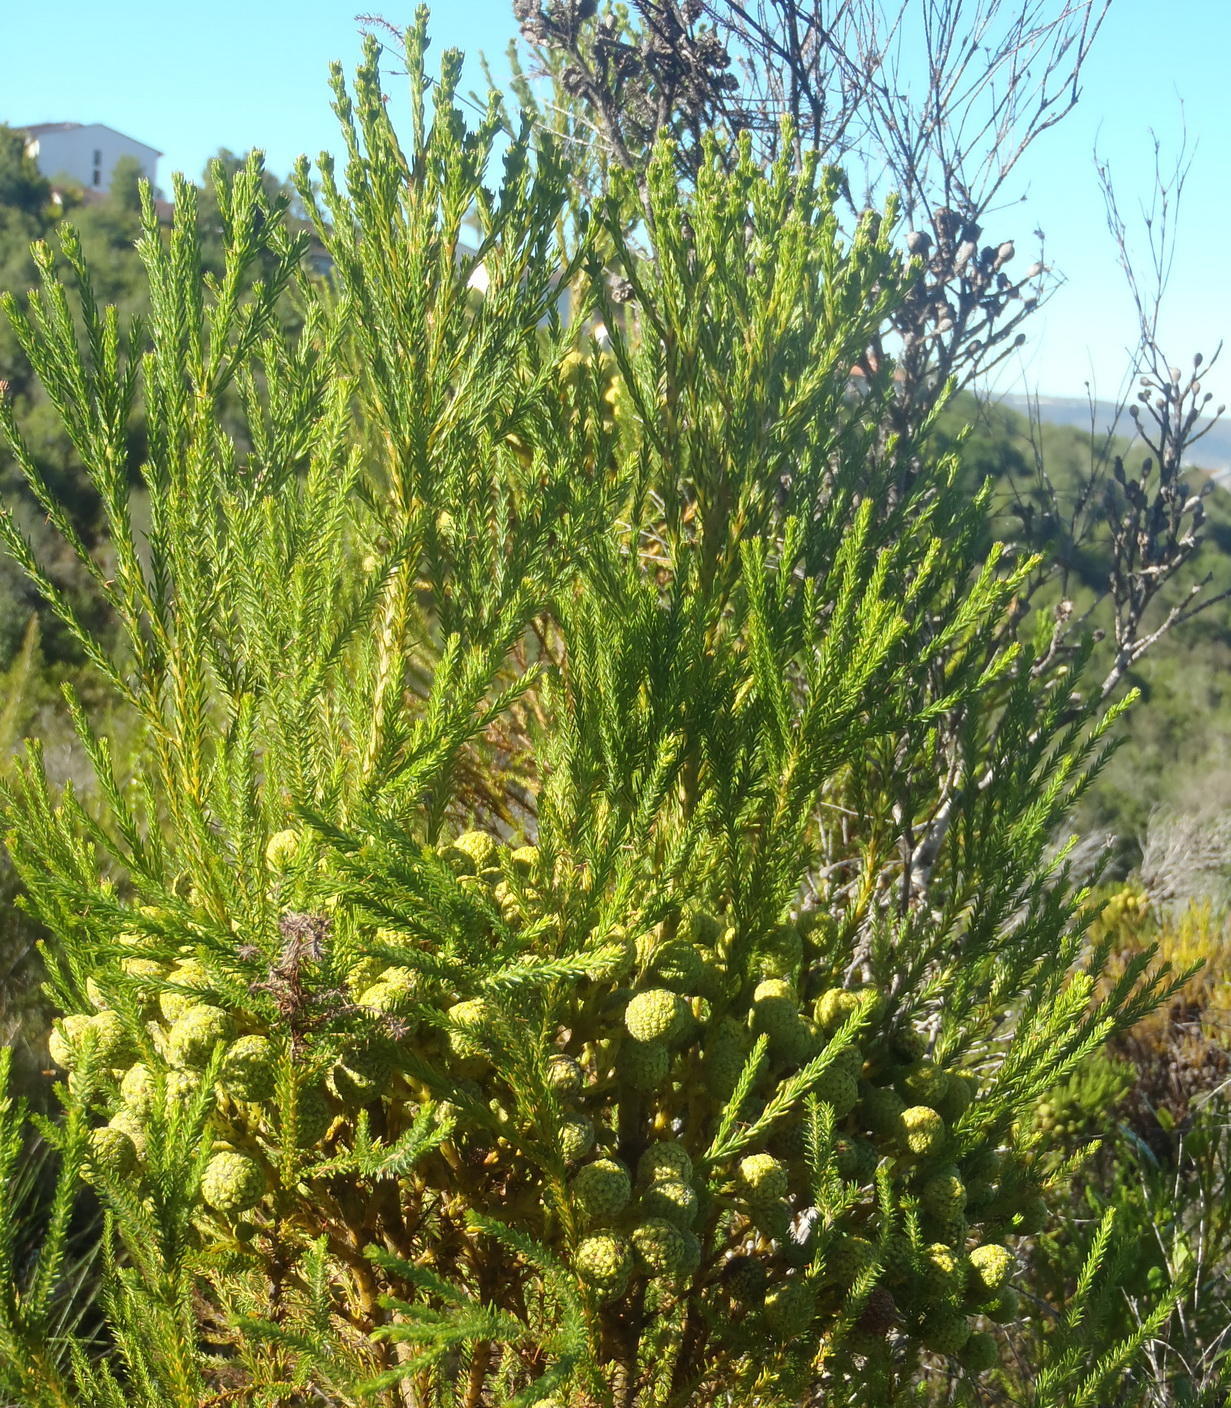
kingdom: Plantae
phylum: Tracheophyta
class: Magnoliopsida
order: Bruniales
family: Bruniaceae
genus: Berzelia
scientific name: Berzelia intermedia
